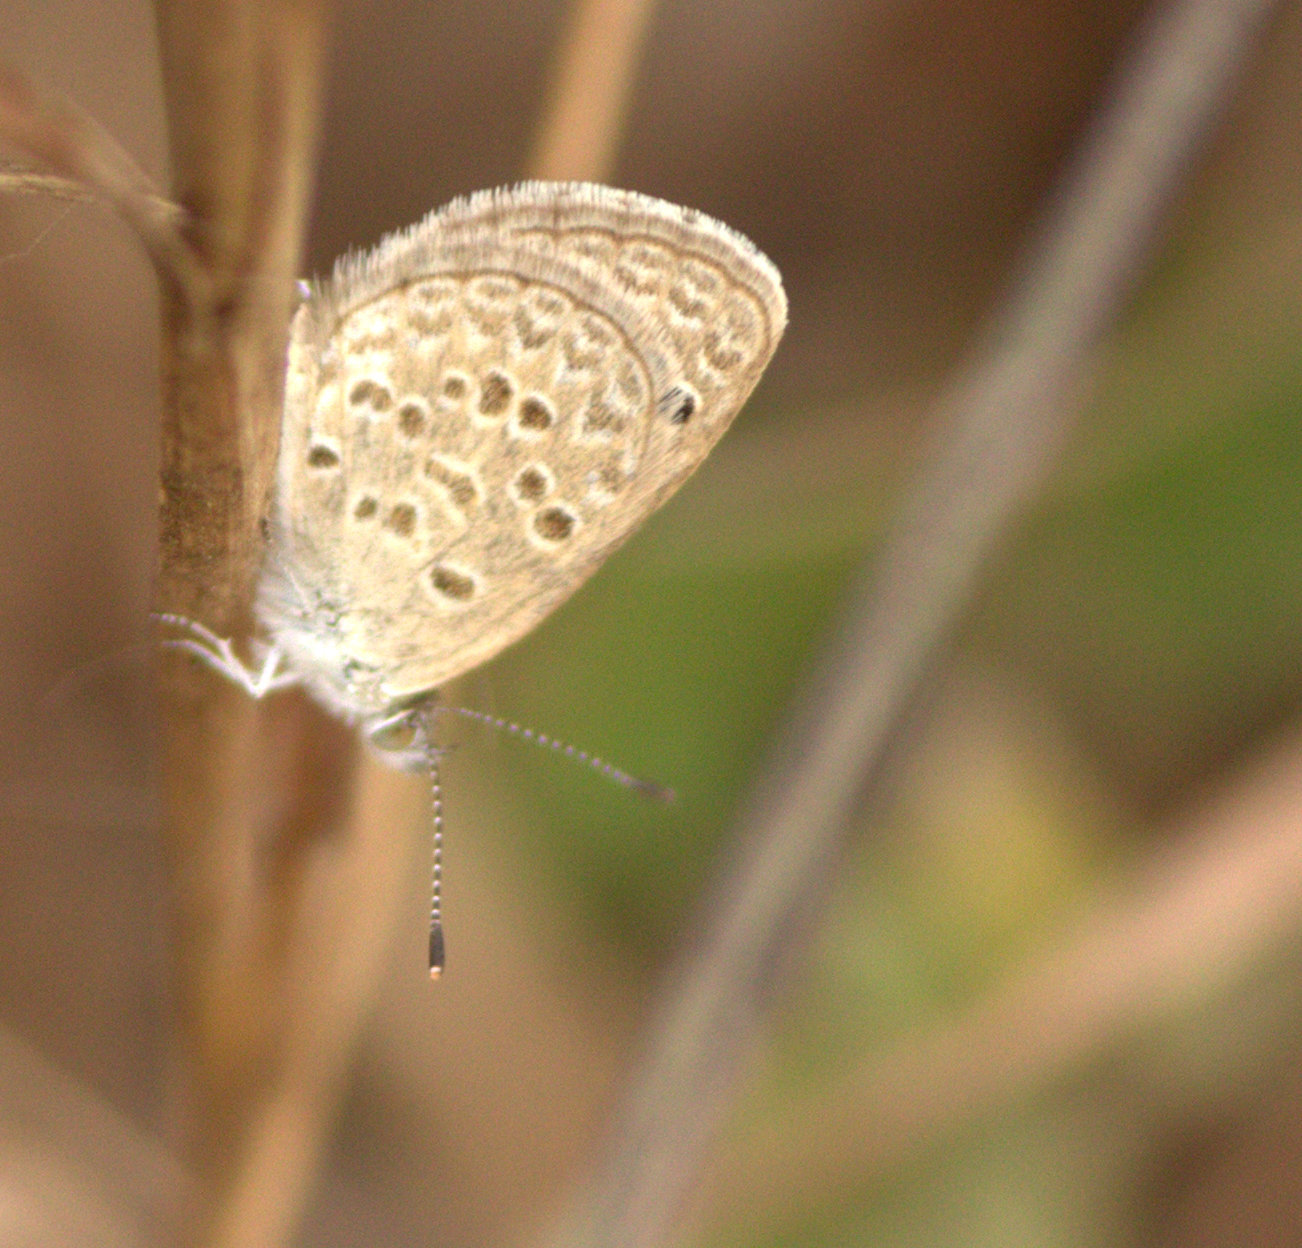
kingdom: Animalia
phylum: Arthropoda
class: Insecta
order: Lepidoptera
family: Lycaenidae
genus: Zizina
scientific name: Zizina otis
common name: Lesser grass blue
